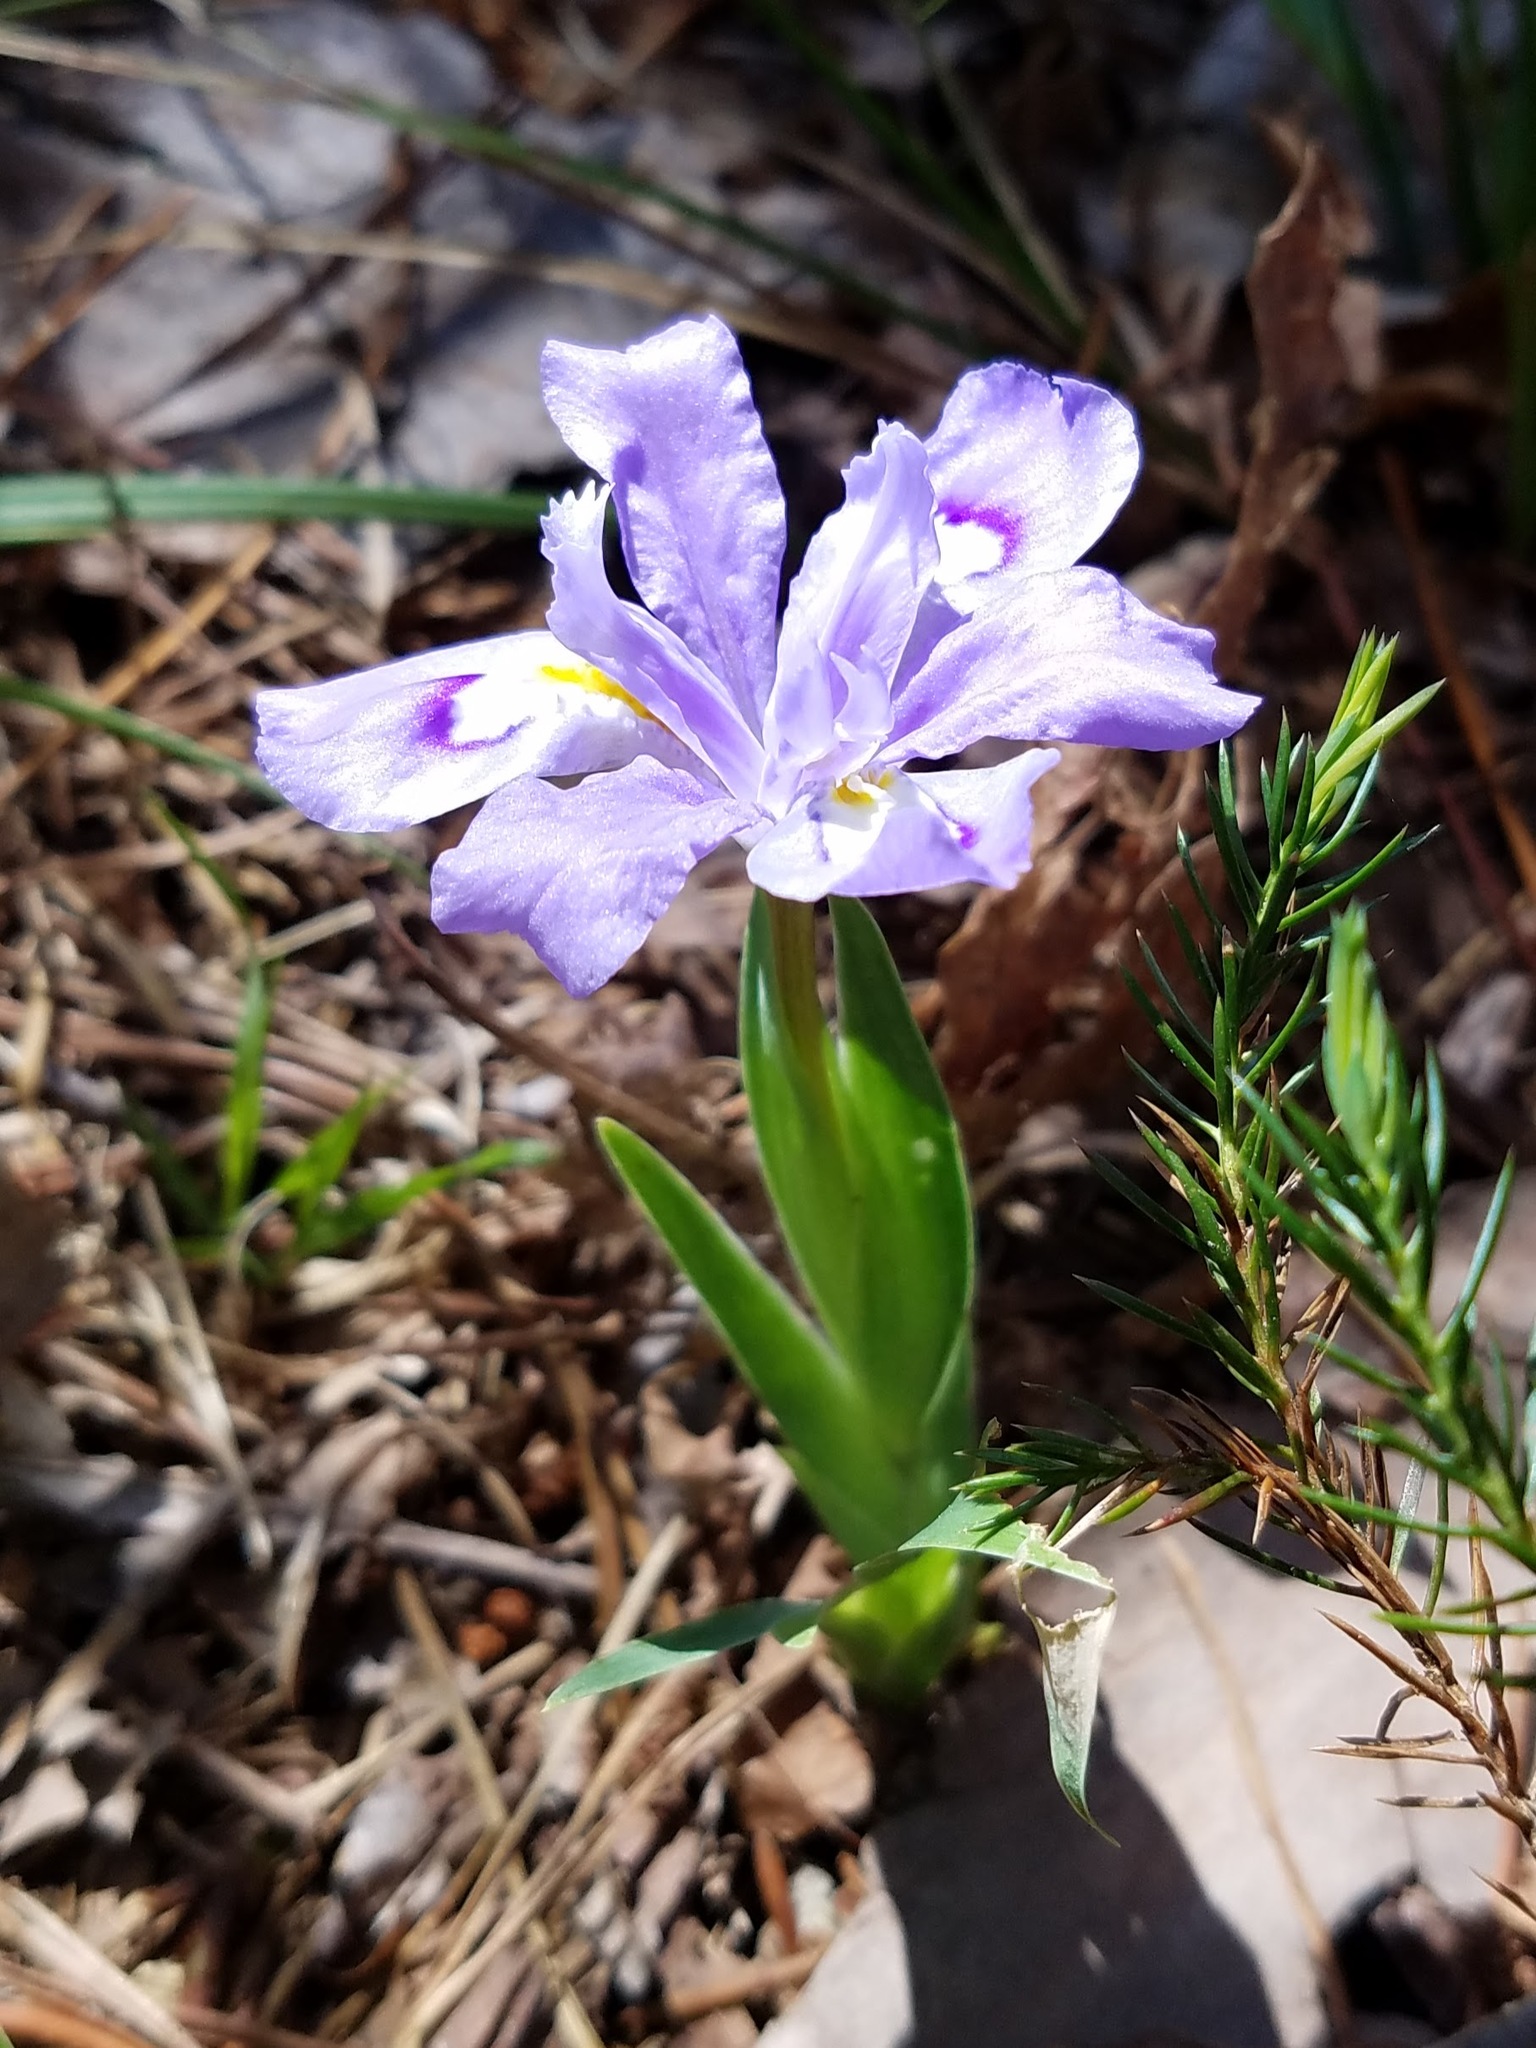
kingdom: Plantae
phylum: Tracheophyta
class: Liliopsida
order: Asparagales
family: Iridaceae
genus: Iris
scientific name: Iris cristata
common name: Crested iris
